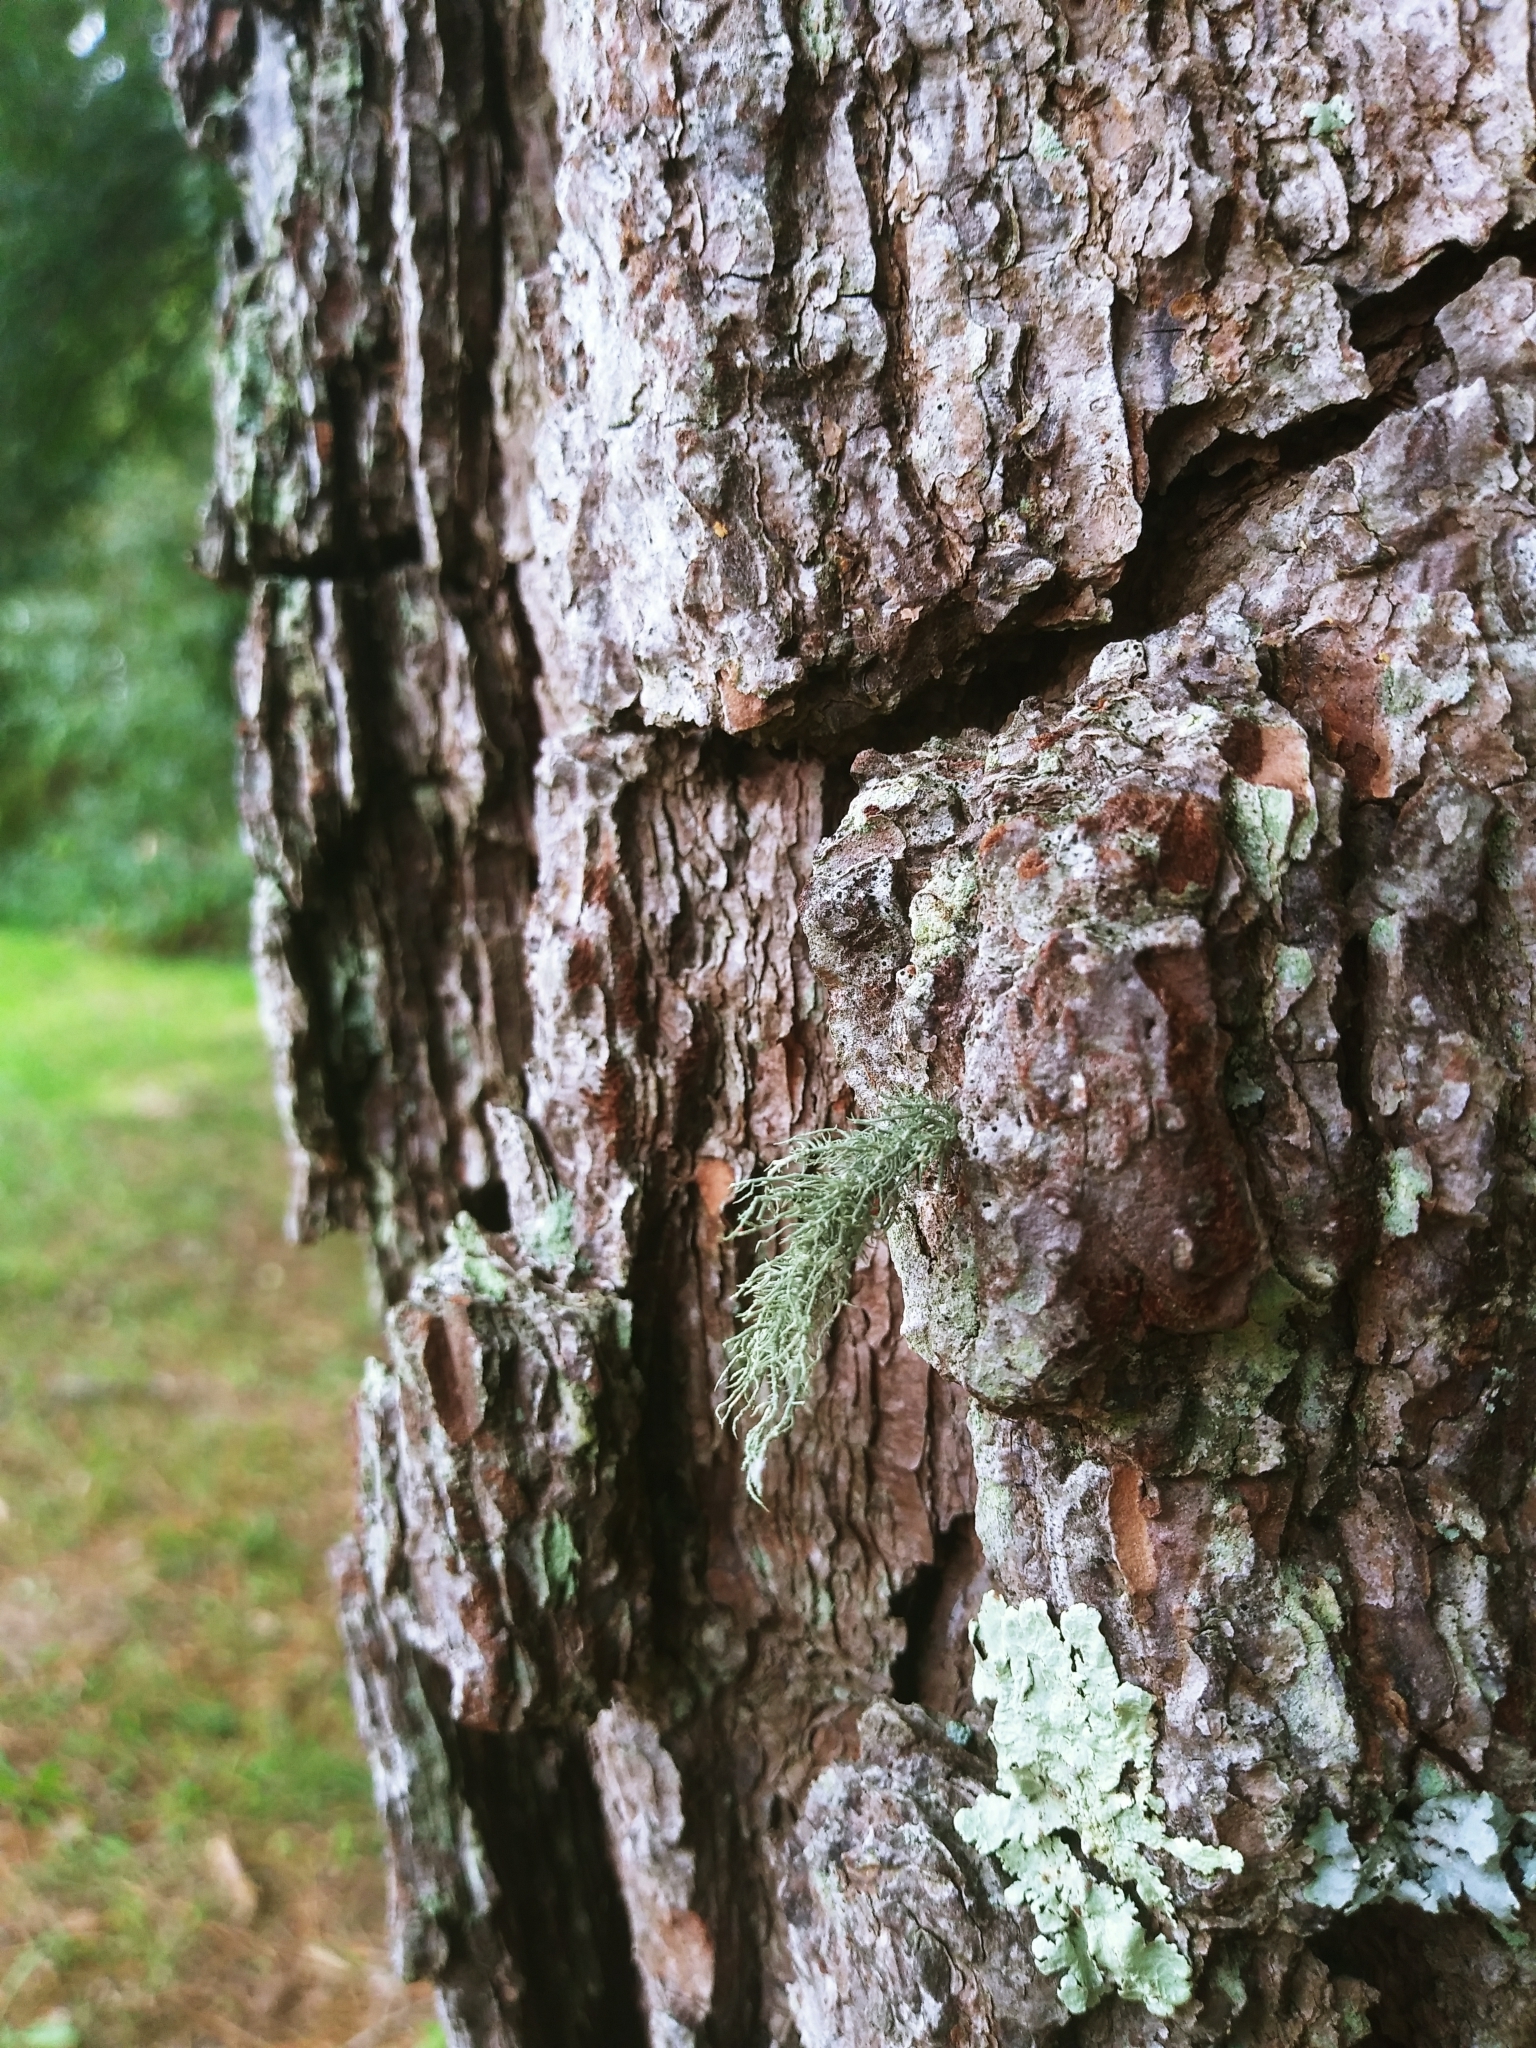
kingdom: Fungi
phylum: Ascomycota
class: Lecanoromycetes
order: Lecanorales
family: Parmeliaceae
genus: Usnea
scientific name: Usnea strigosa
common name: Bushy beard lichen
